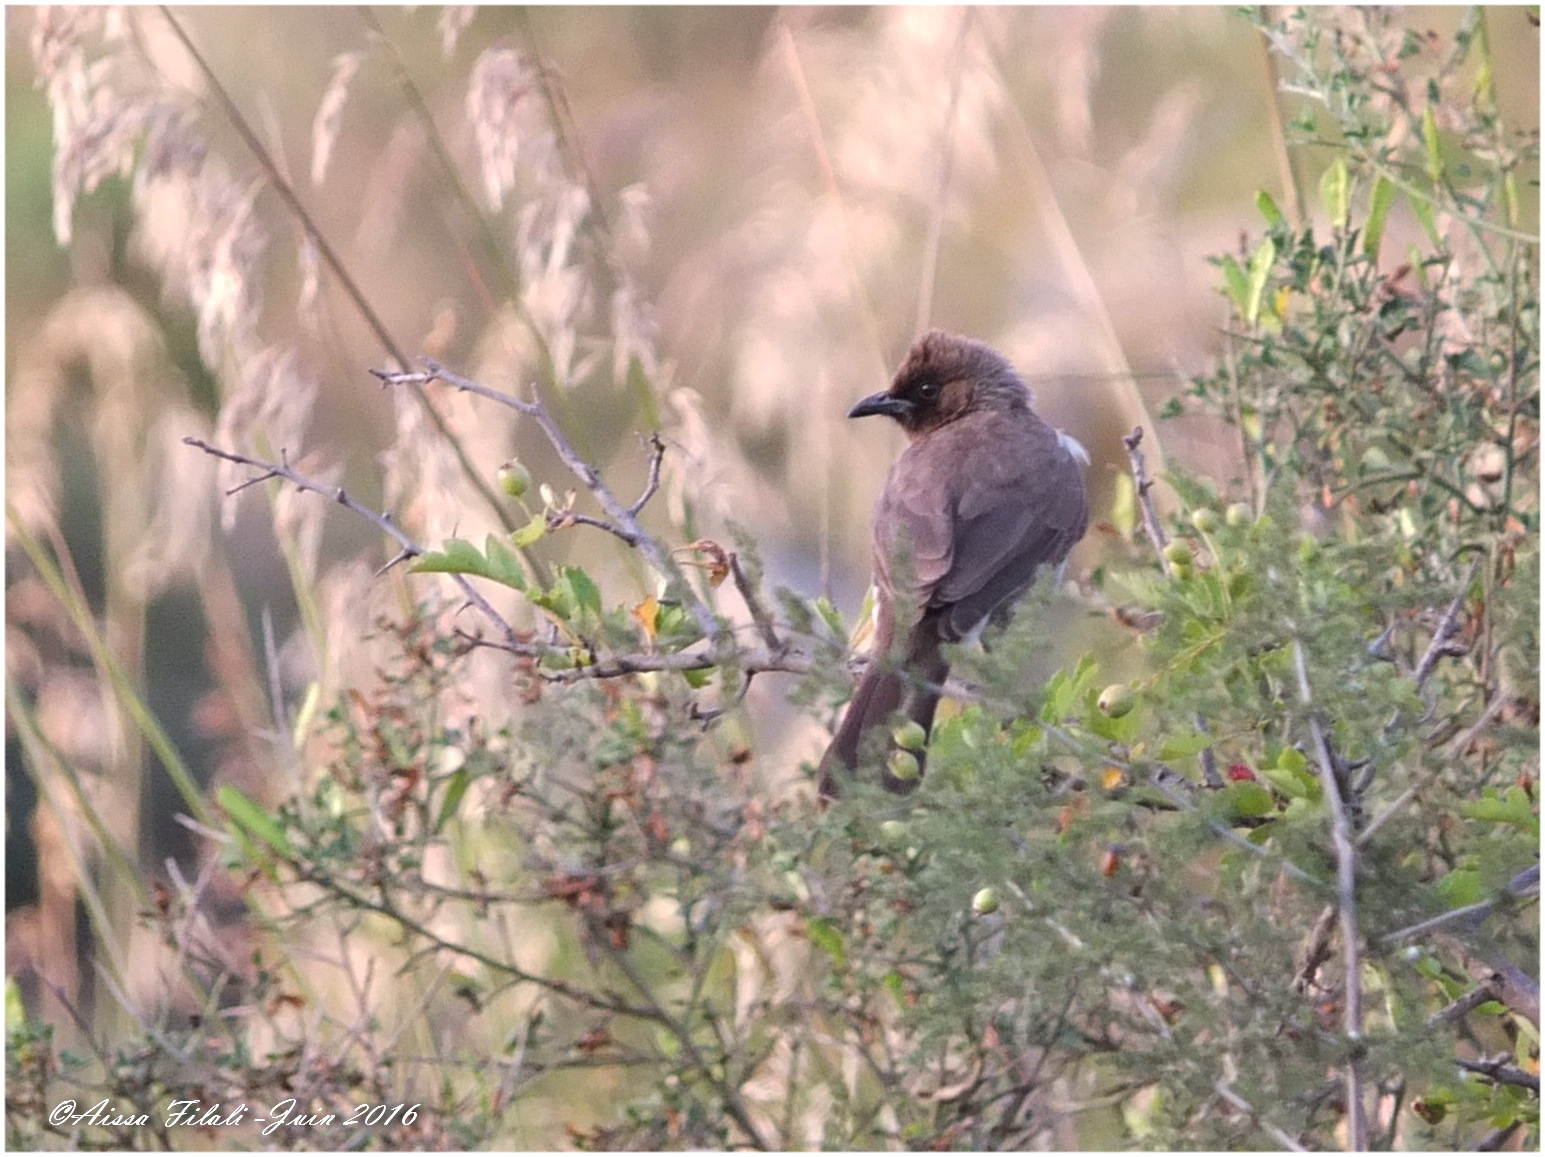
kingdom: Animalia
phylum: Chordata
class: Aves
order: Passeriformes
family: Pycnonotidae
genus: Pycnonotus
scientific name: Pycnonotus barbatus
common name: Common bulbul
